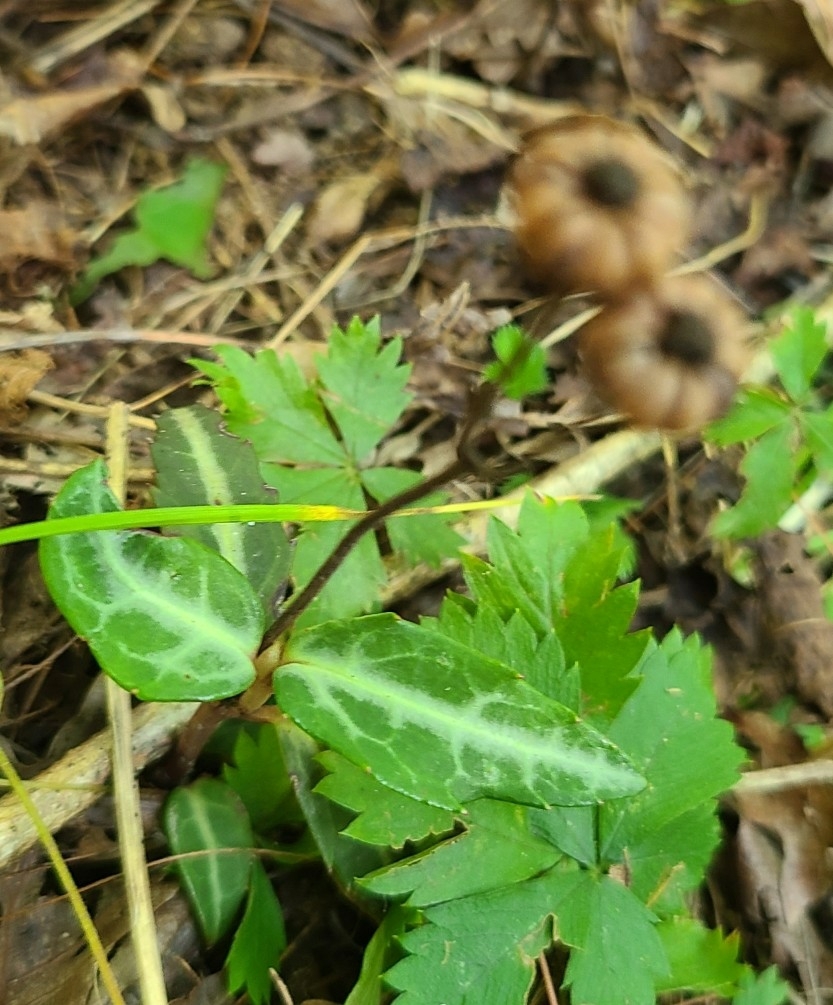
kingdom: Plantae
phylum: Tracheophyta
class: Magnoliopsida
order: Ericales
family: Ericaceae
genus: Chimaphila
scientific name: Chimaphila maculata
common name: Spotted pipsissewa
